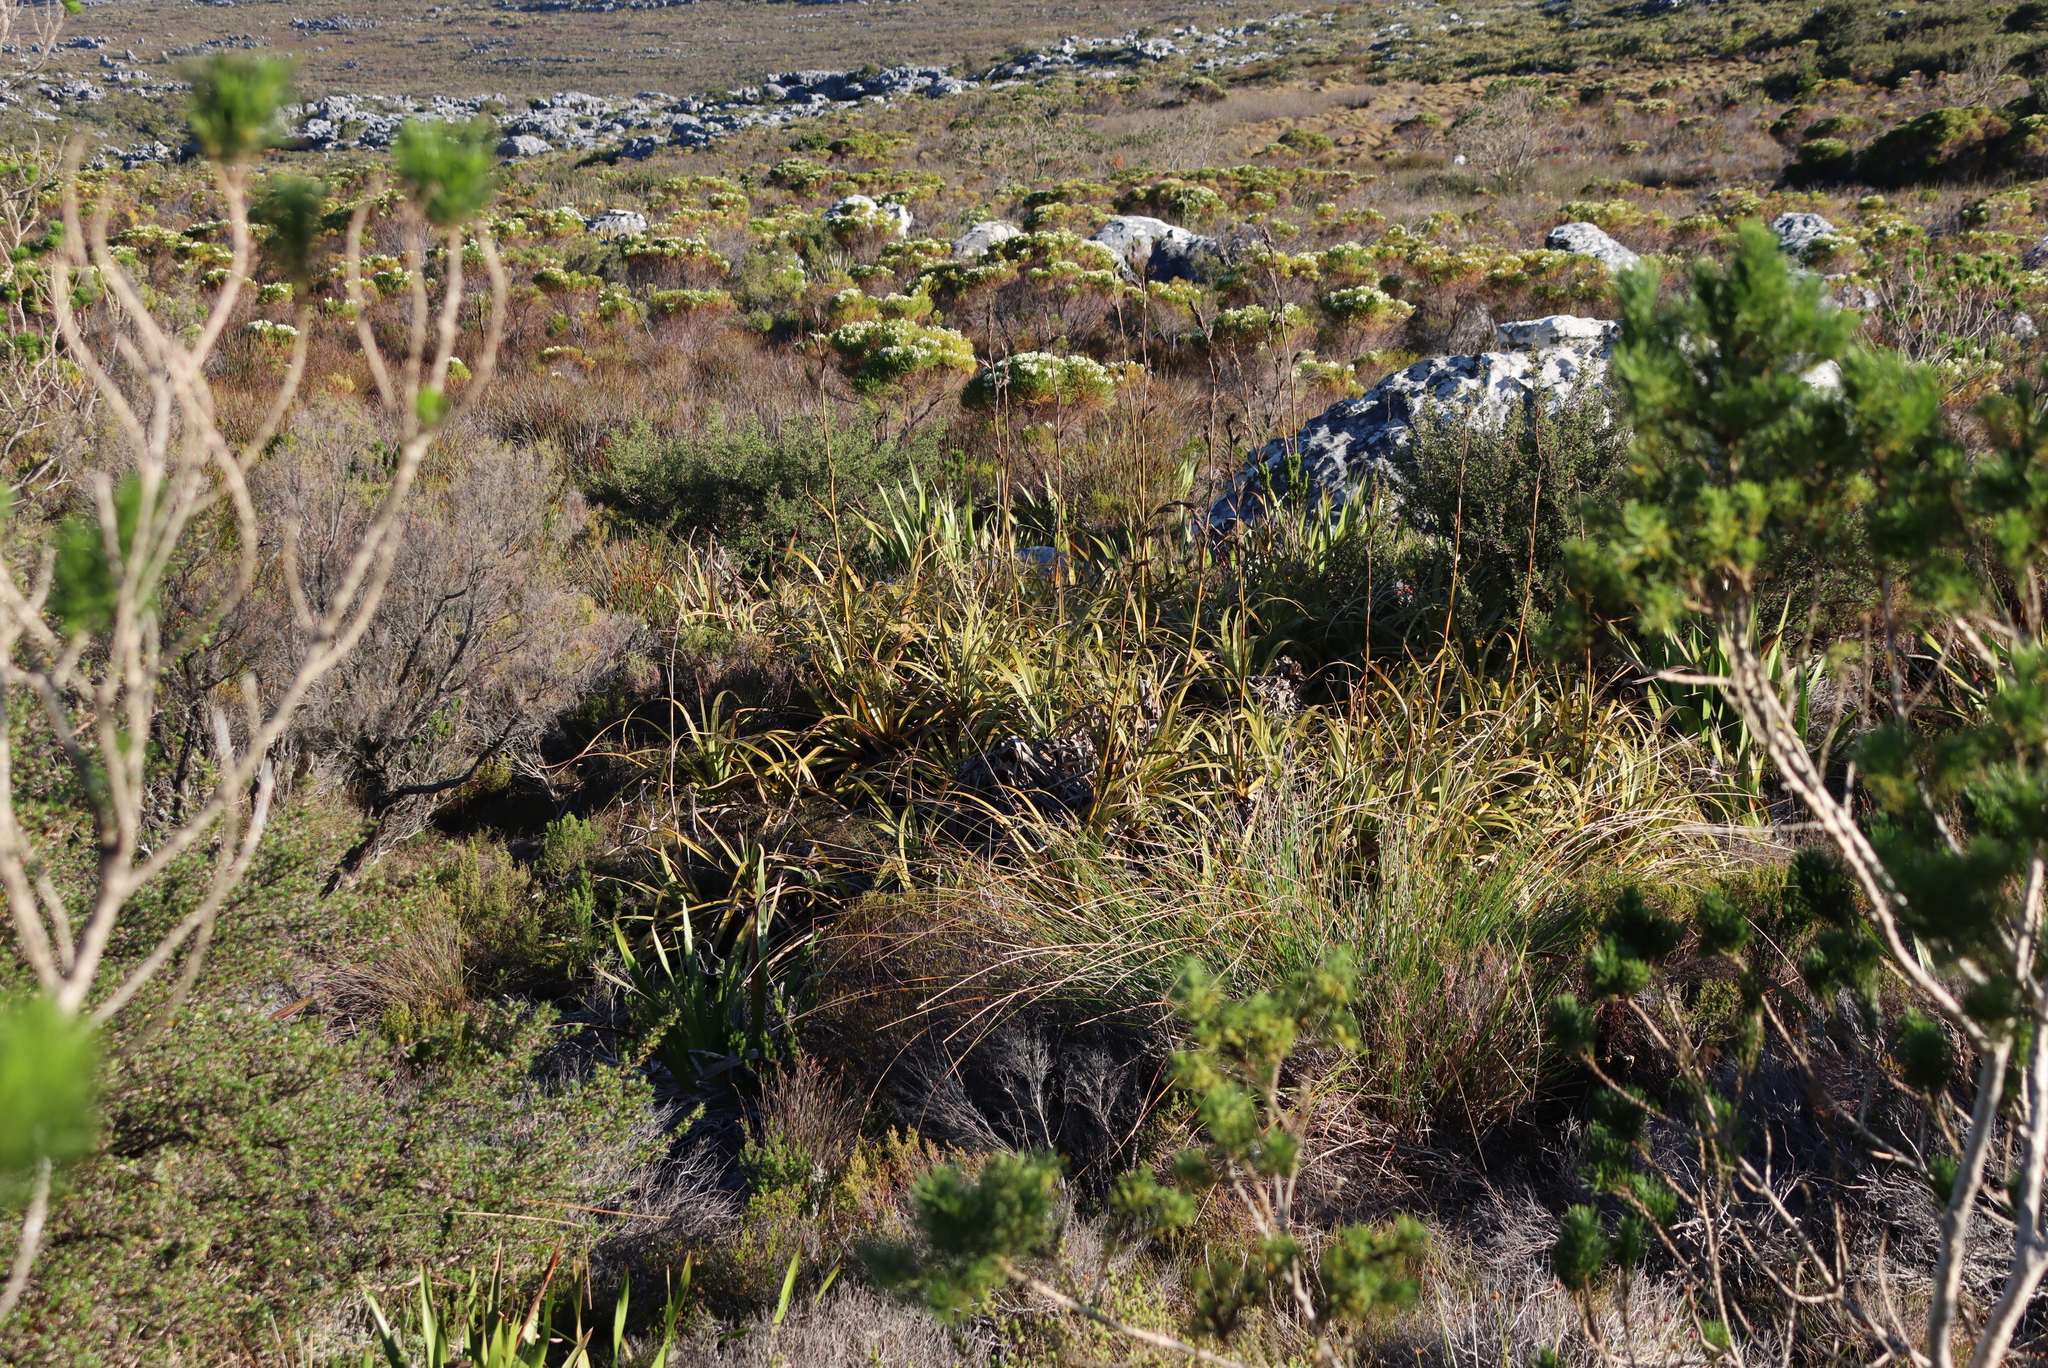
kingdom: Plantae
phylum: Tracheophyta
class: Liliopsida
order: Poales
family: Cyperaceae
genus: Tetraria
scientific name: Tetraria thermalis
